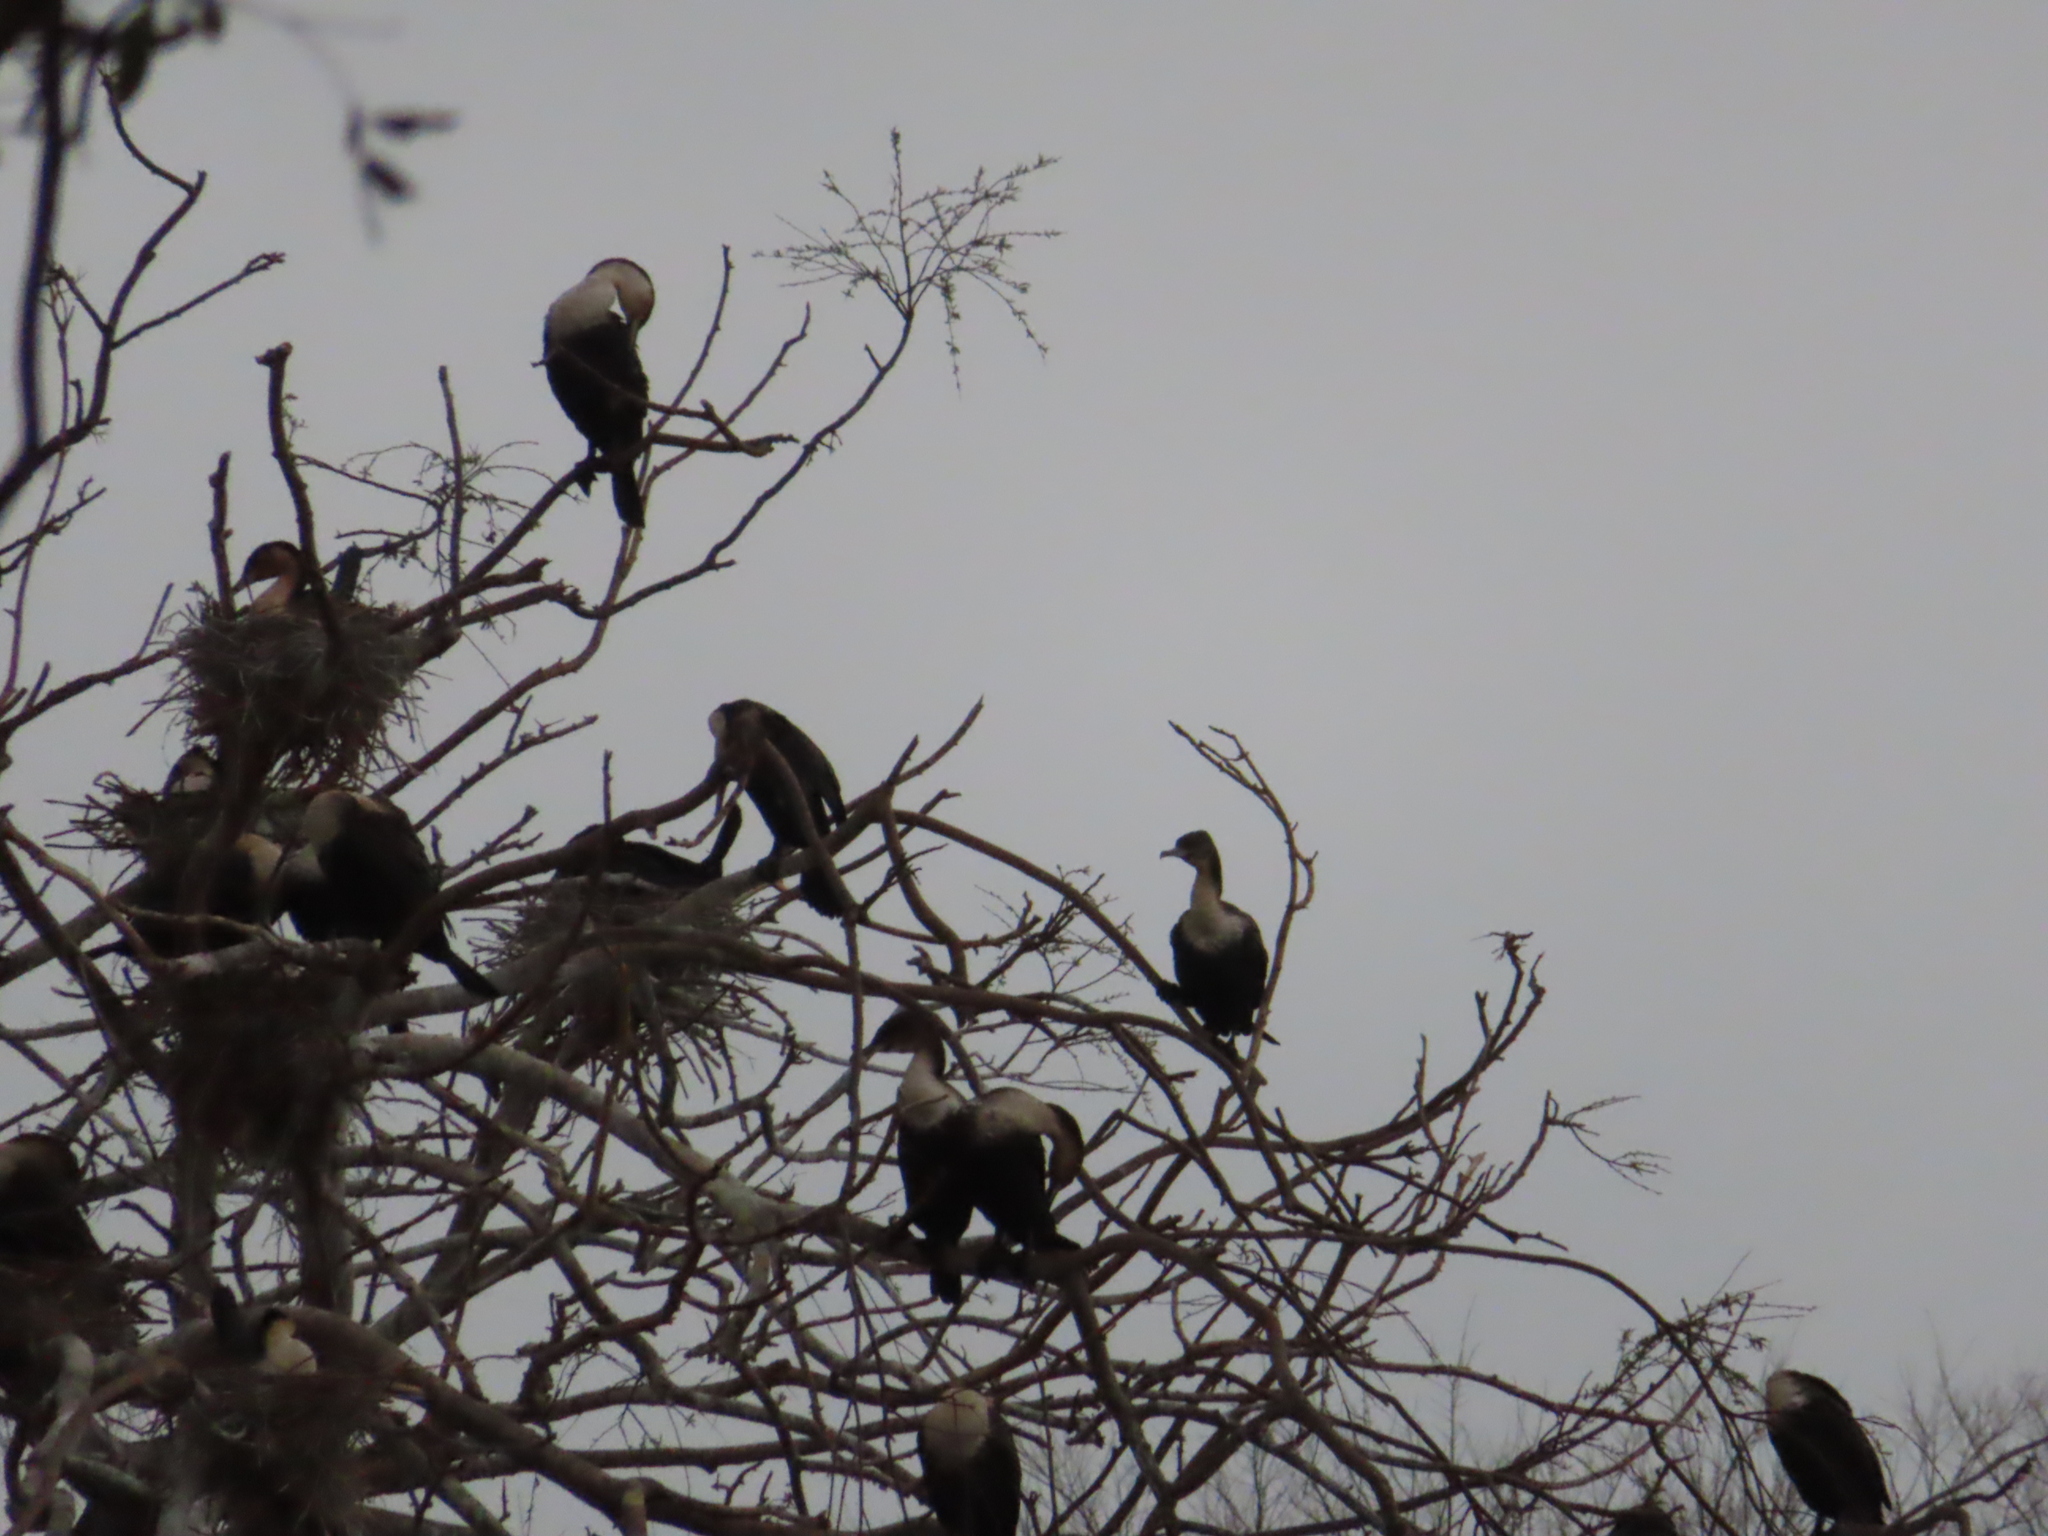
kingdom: Animalia
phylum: Chordata
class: Aves
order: Suliformes
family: Phalacrocoracidae
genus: Phalacrocorax
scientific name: Phalacrocorax carbo
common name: Great cormorant
